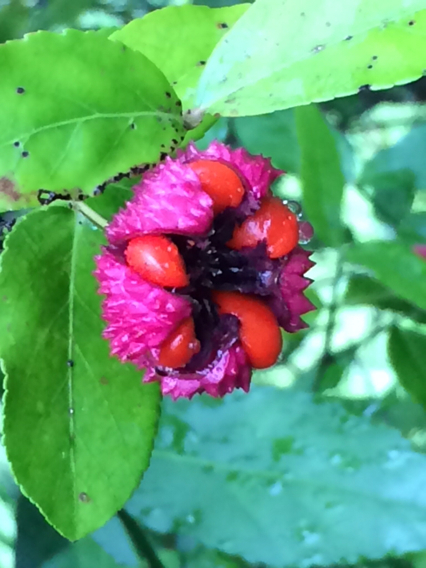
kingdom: Plantae
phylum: Tracheophyta
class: Magnoliopsida
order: Celastrales
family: Celastraceae
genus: Euonymus
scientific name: Euonymus americanus
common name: Bursting-heart
